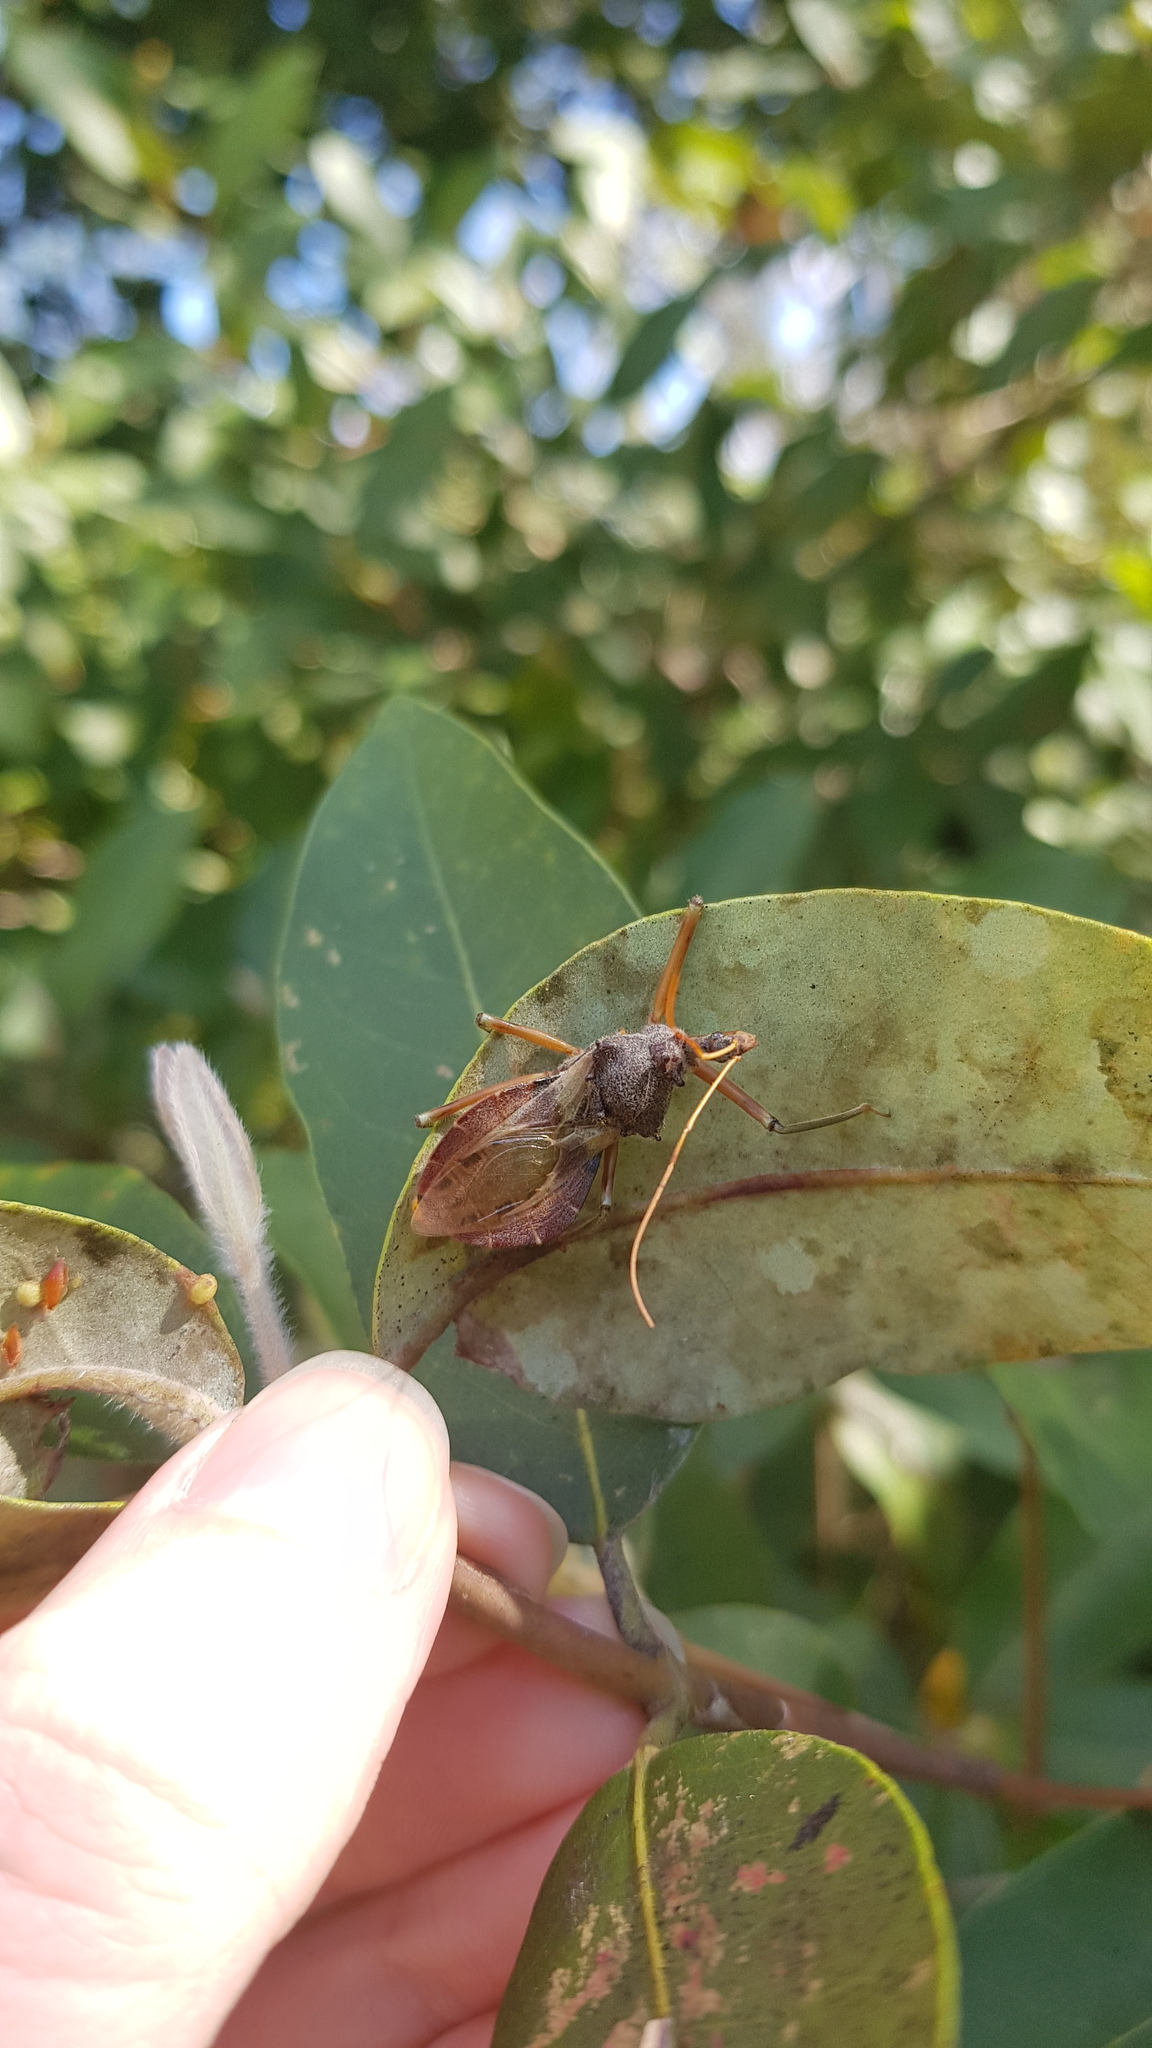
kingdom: Animalia
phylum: Arthropoda
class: Insecta
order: Hemiptera
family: Reduviidae
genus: Pristhesancus
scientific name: Pristhesancus plagipennis
